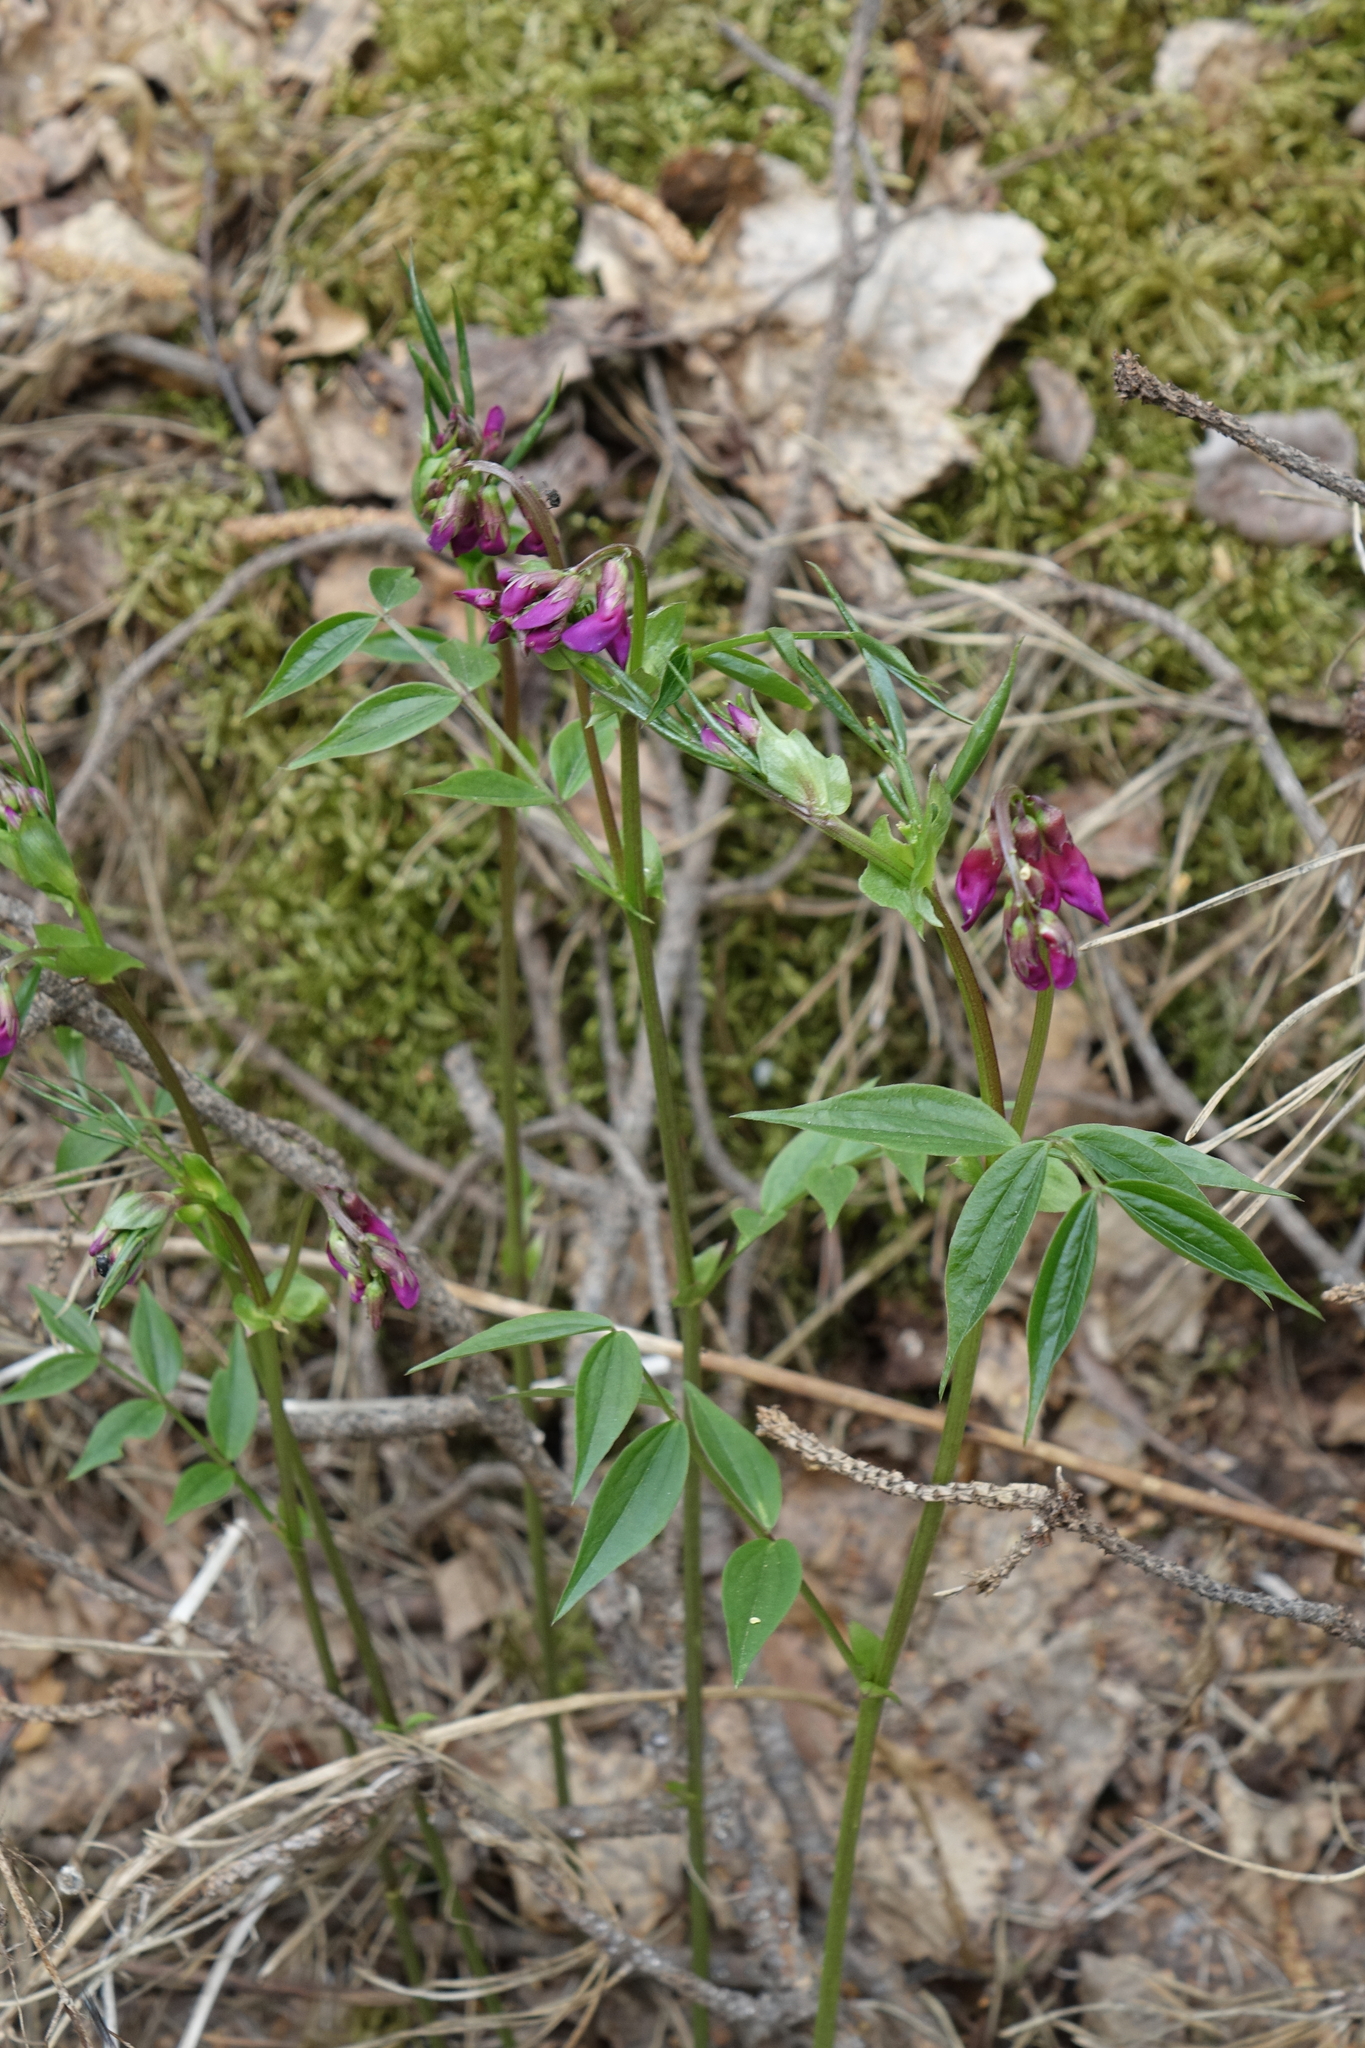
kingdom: Plantae
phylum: Tracheophyta
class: Magnoliopsida
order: Fabales
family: Fabaceae
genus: Lathyrus
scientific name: Lathyrus vernus
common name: Spring pea
